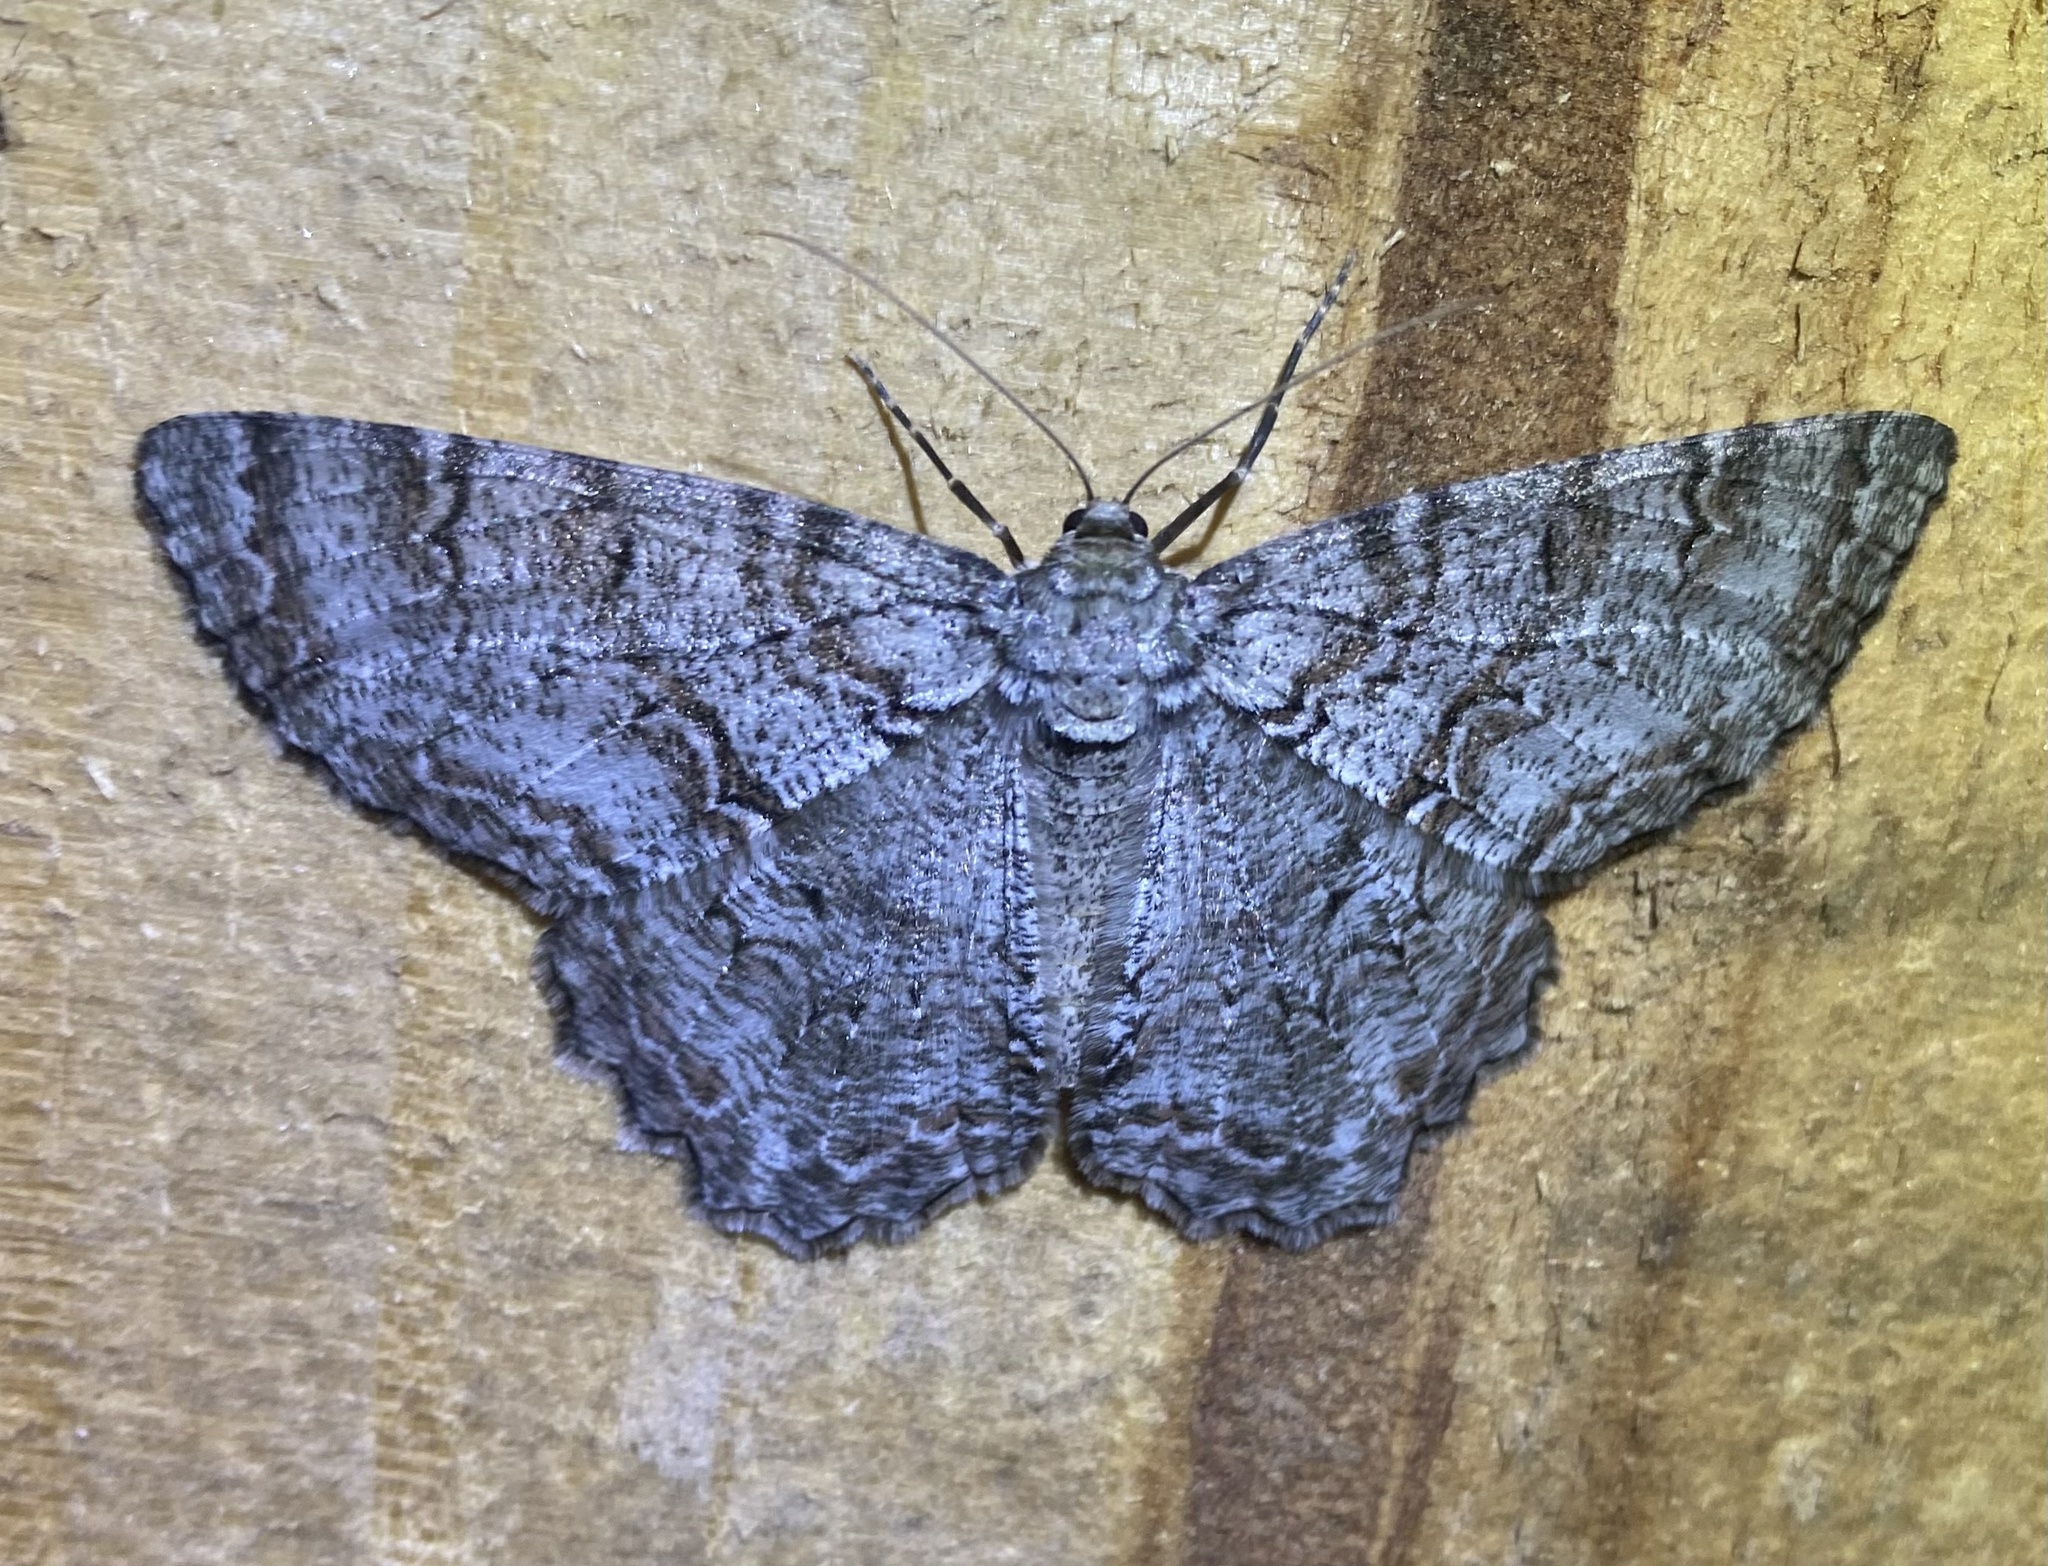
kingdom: Animalia
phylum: Arthropoda
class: Insecta
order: Lepidoptera
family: Geometridae
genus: Epimecis
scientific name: Epimecis hortaria
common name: Tulip-tree beauty
